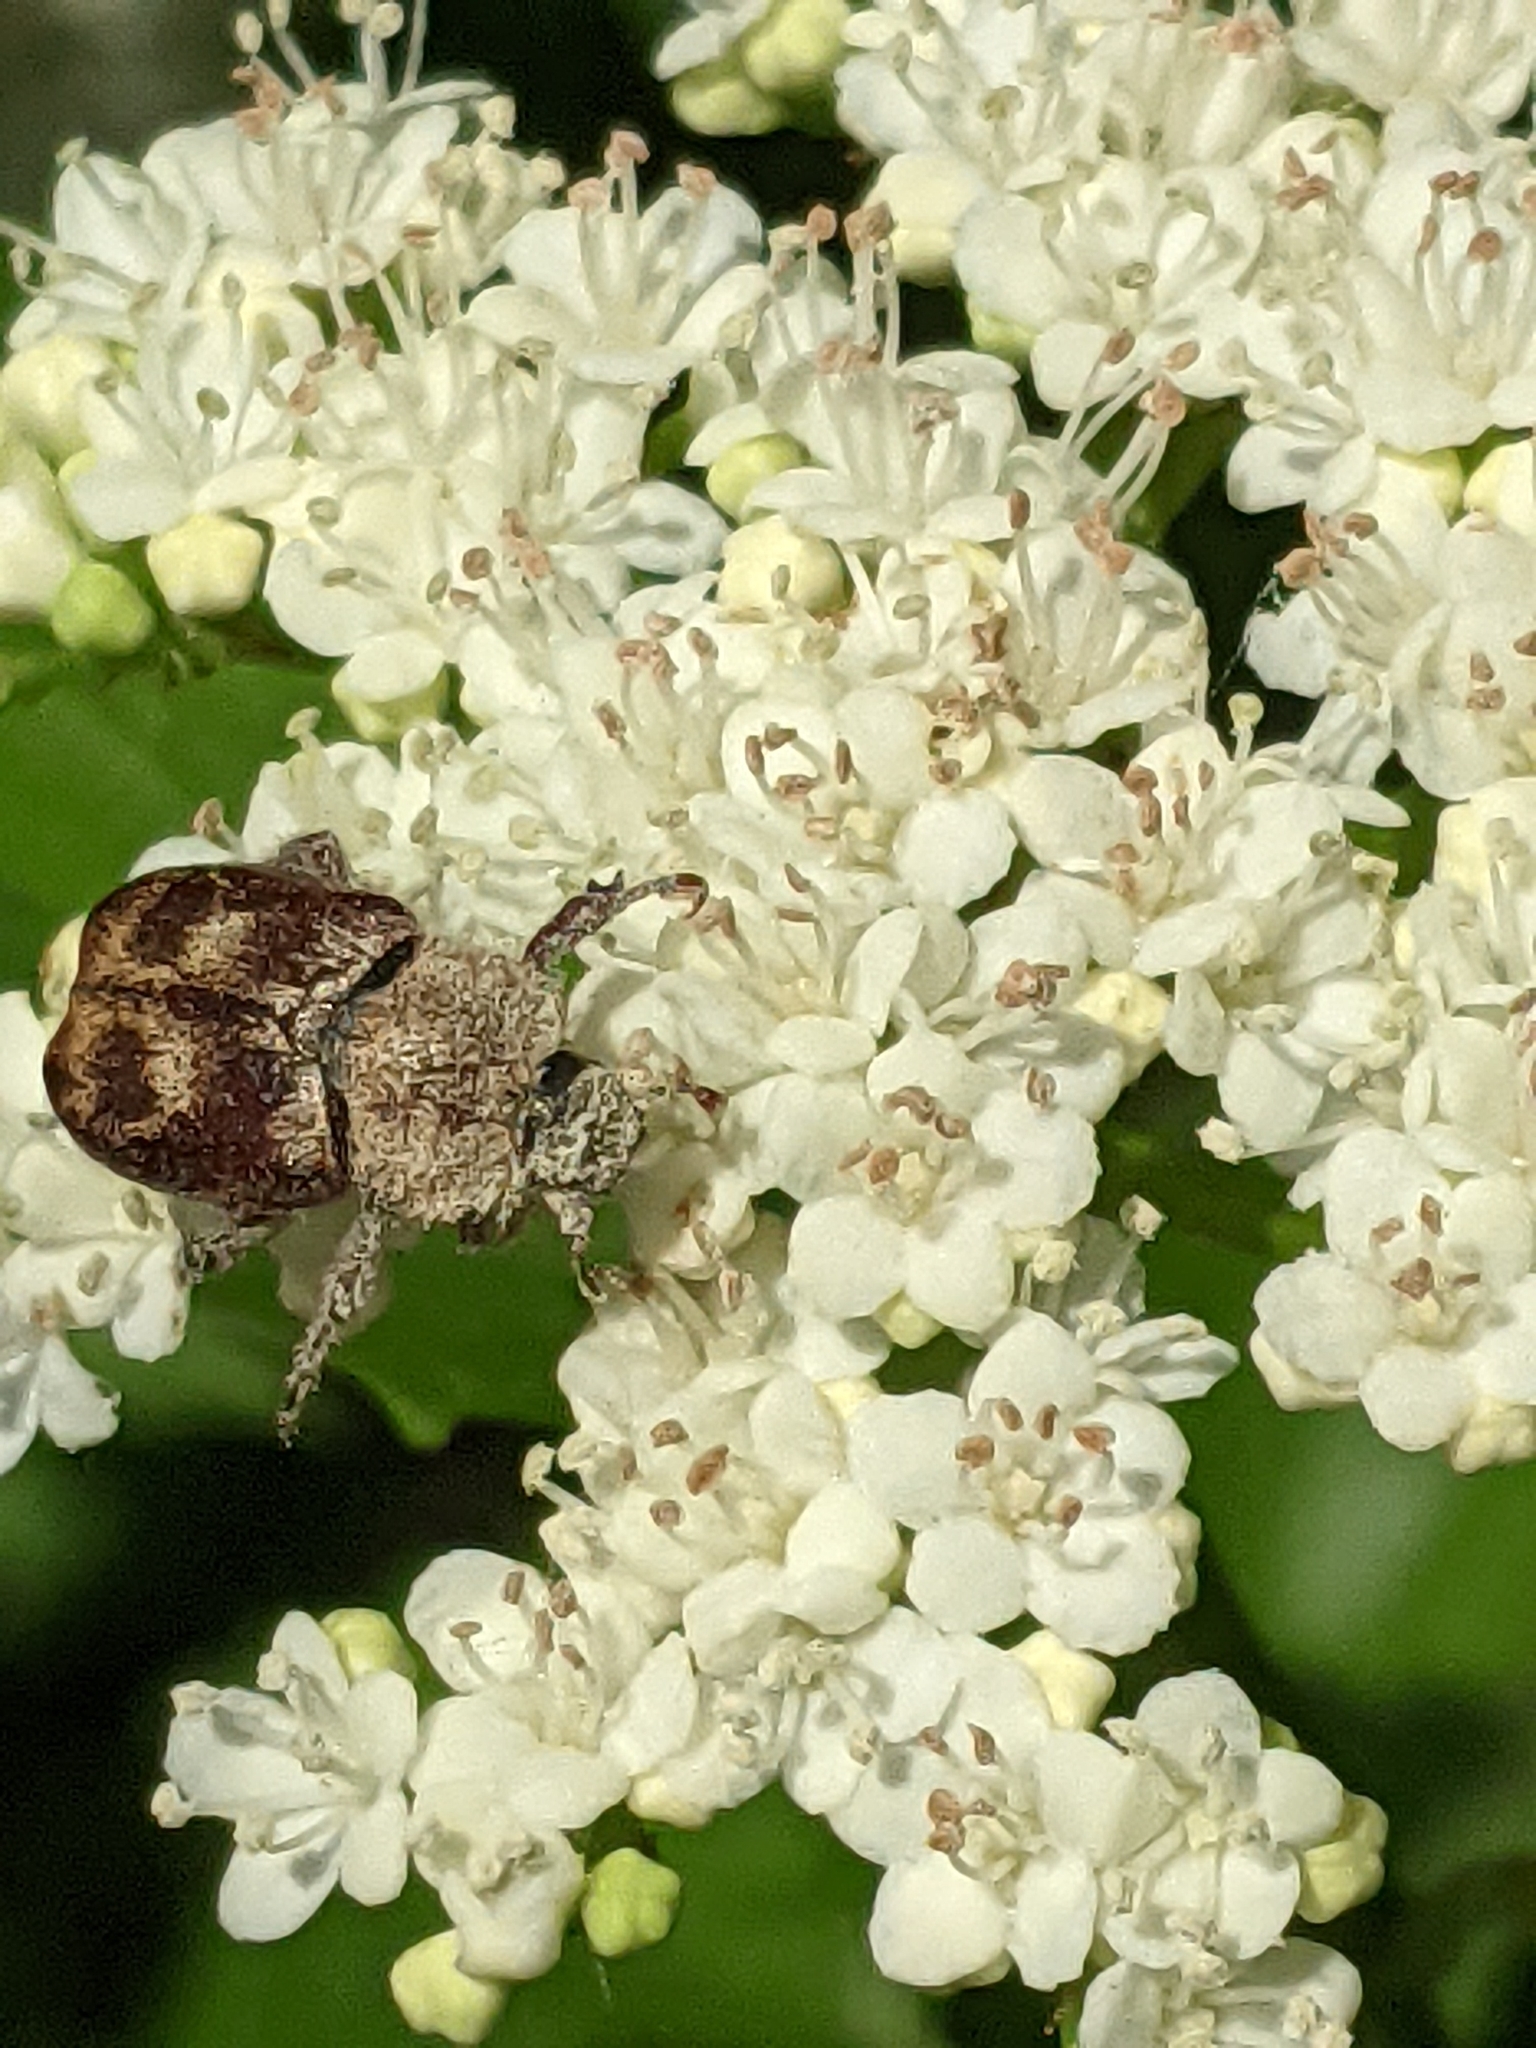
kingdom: Animalia
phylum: Arthropoda
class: Insecta
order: Coleoptera
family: Scarabaeidae
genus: Hoplia
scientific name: Hoplia trifasciata
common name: Three-lined hoplia
